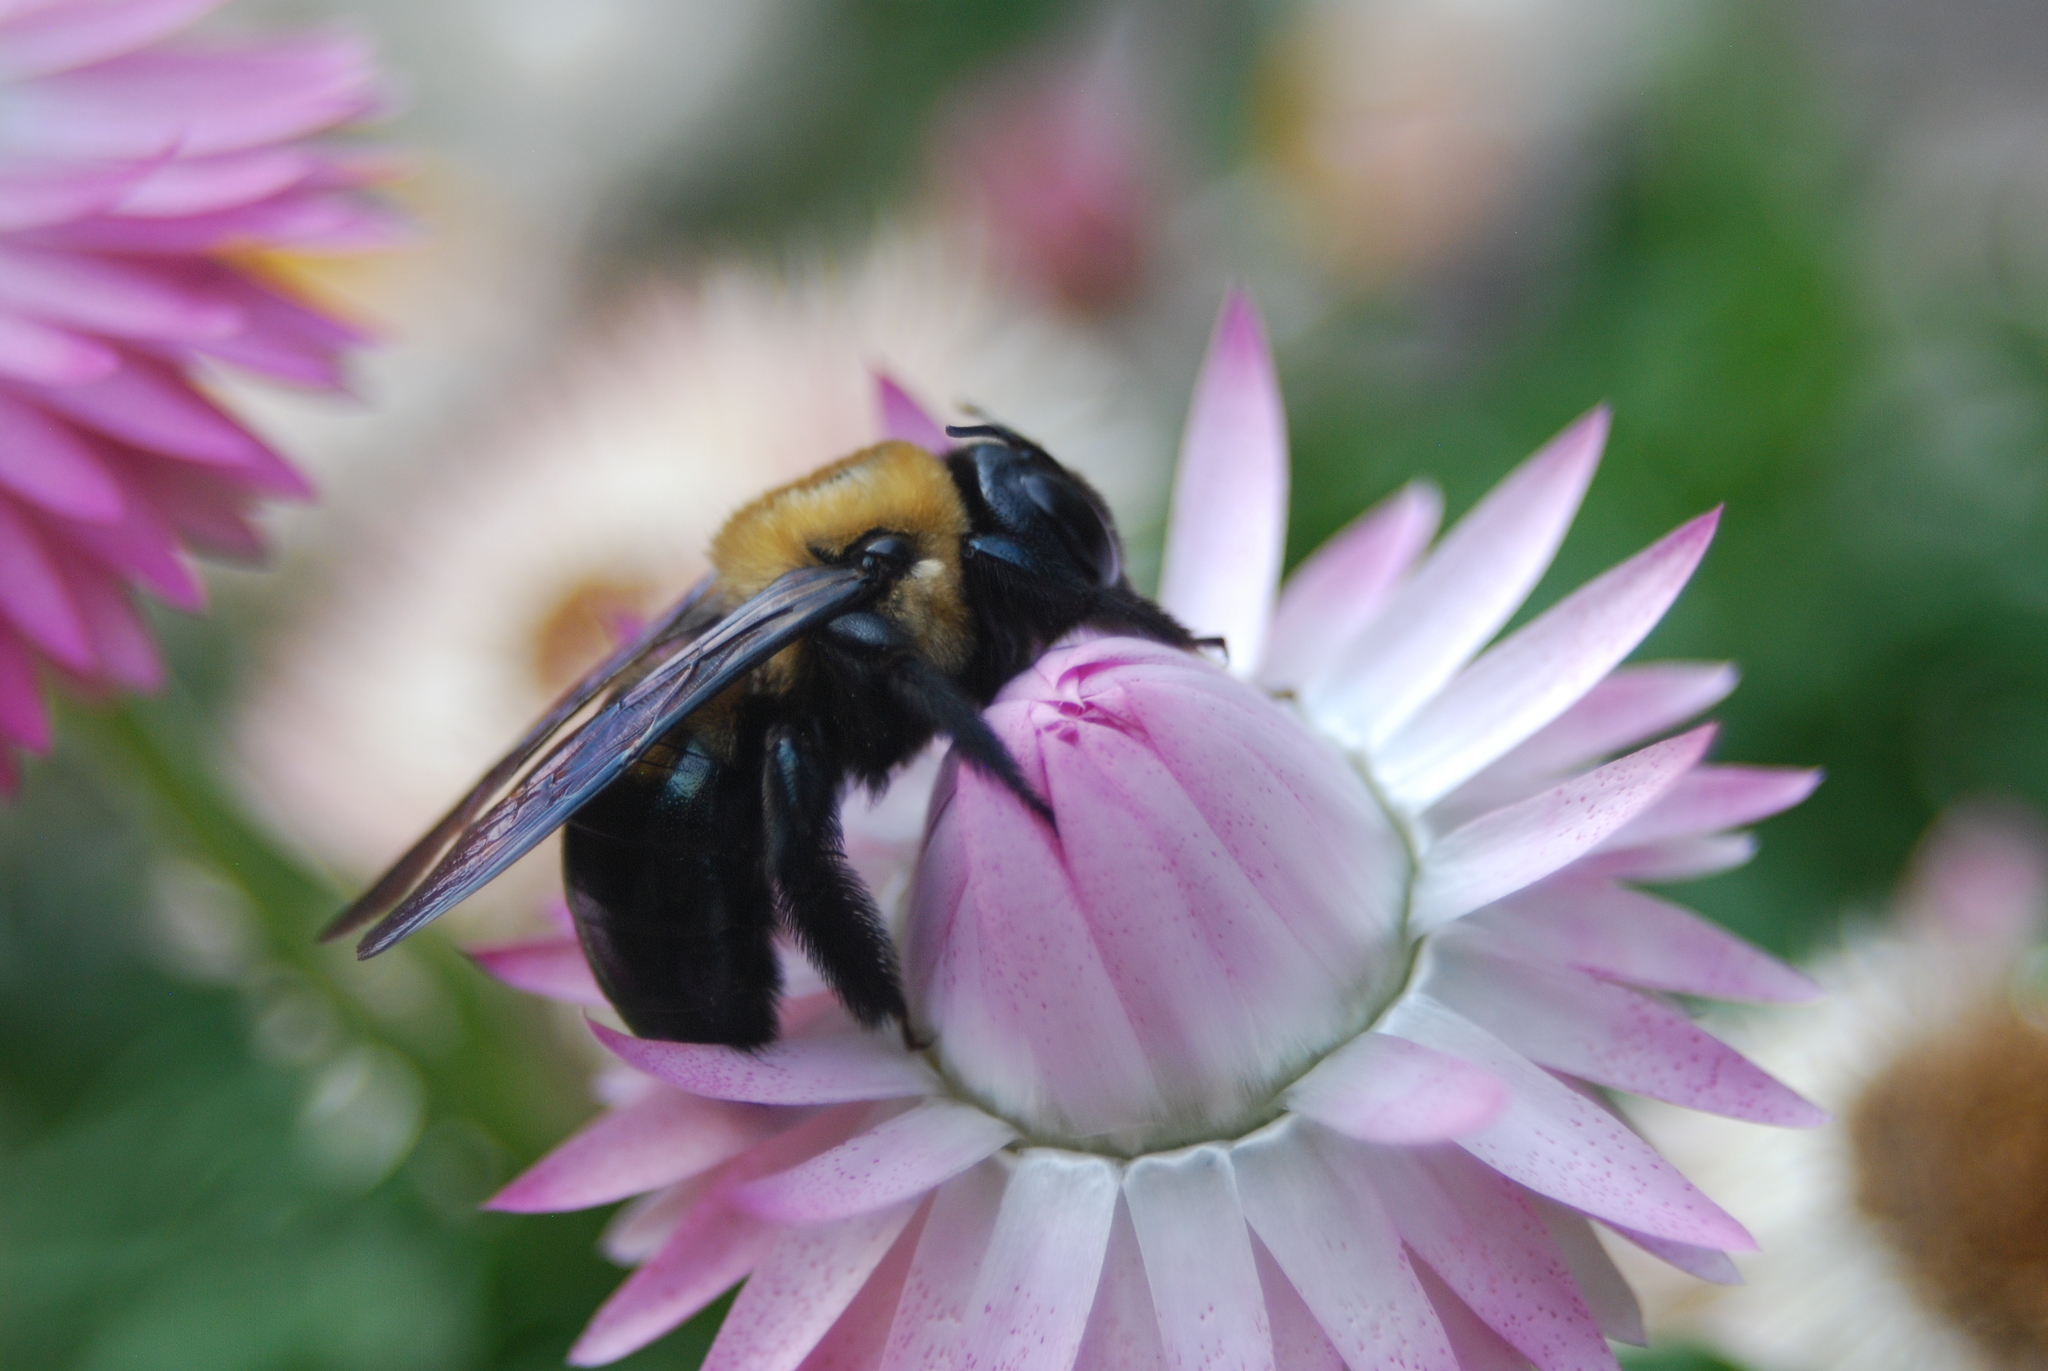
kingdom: Animalia
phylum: Arthropoda
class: Insecta
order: Hymenoptera
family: Apidae
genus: Xylocopa
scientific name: Xylocopa virginica
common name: Carpenter bee
